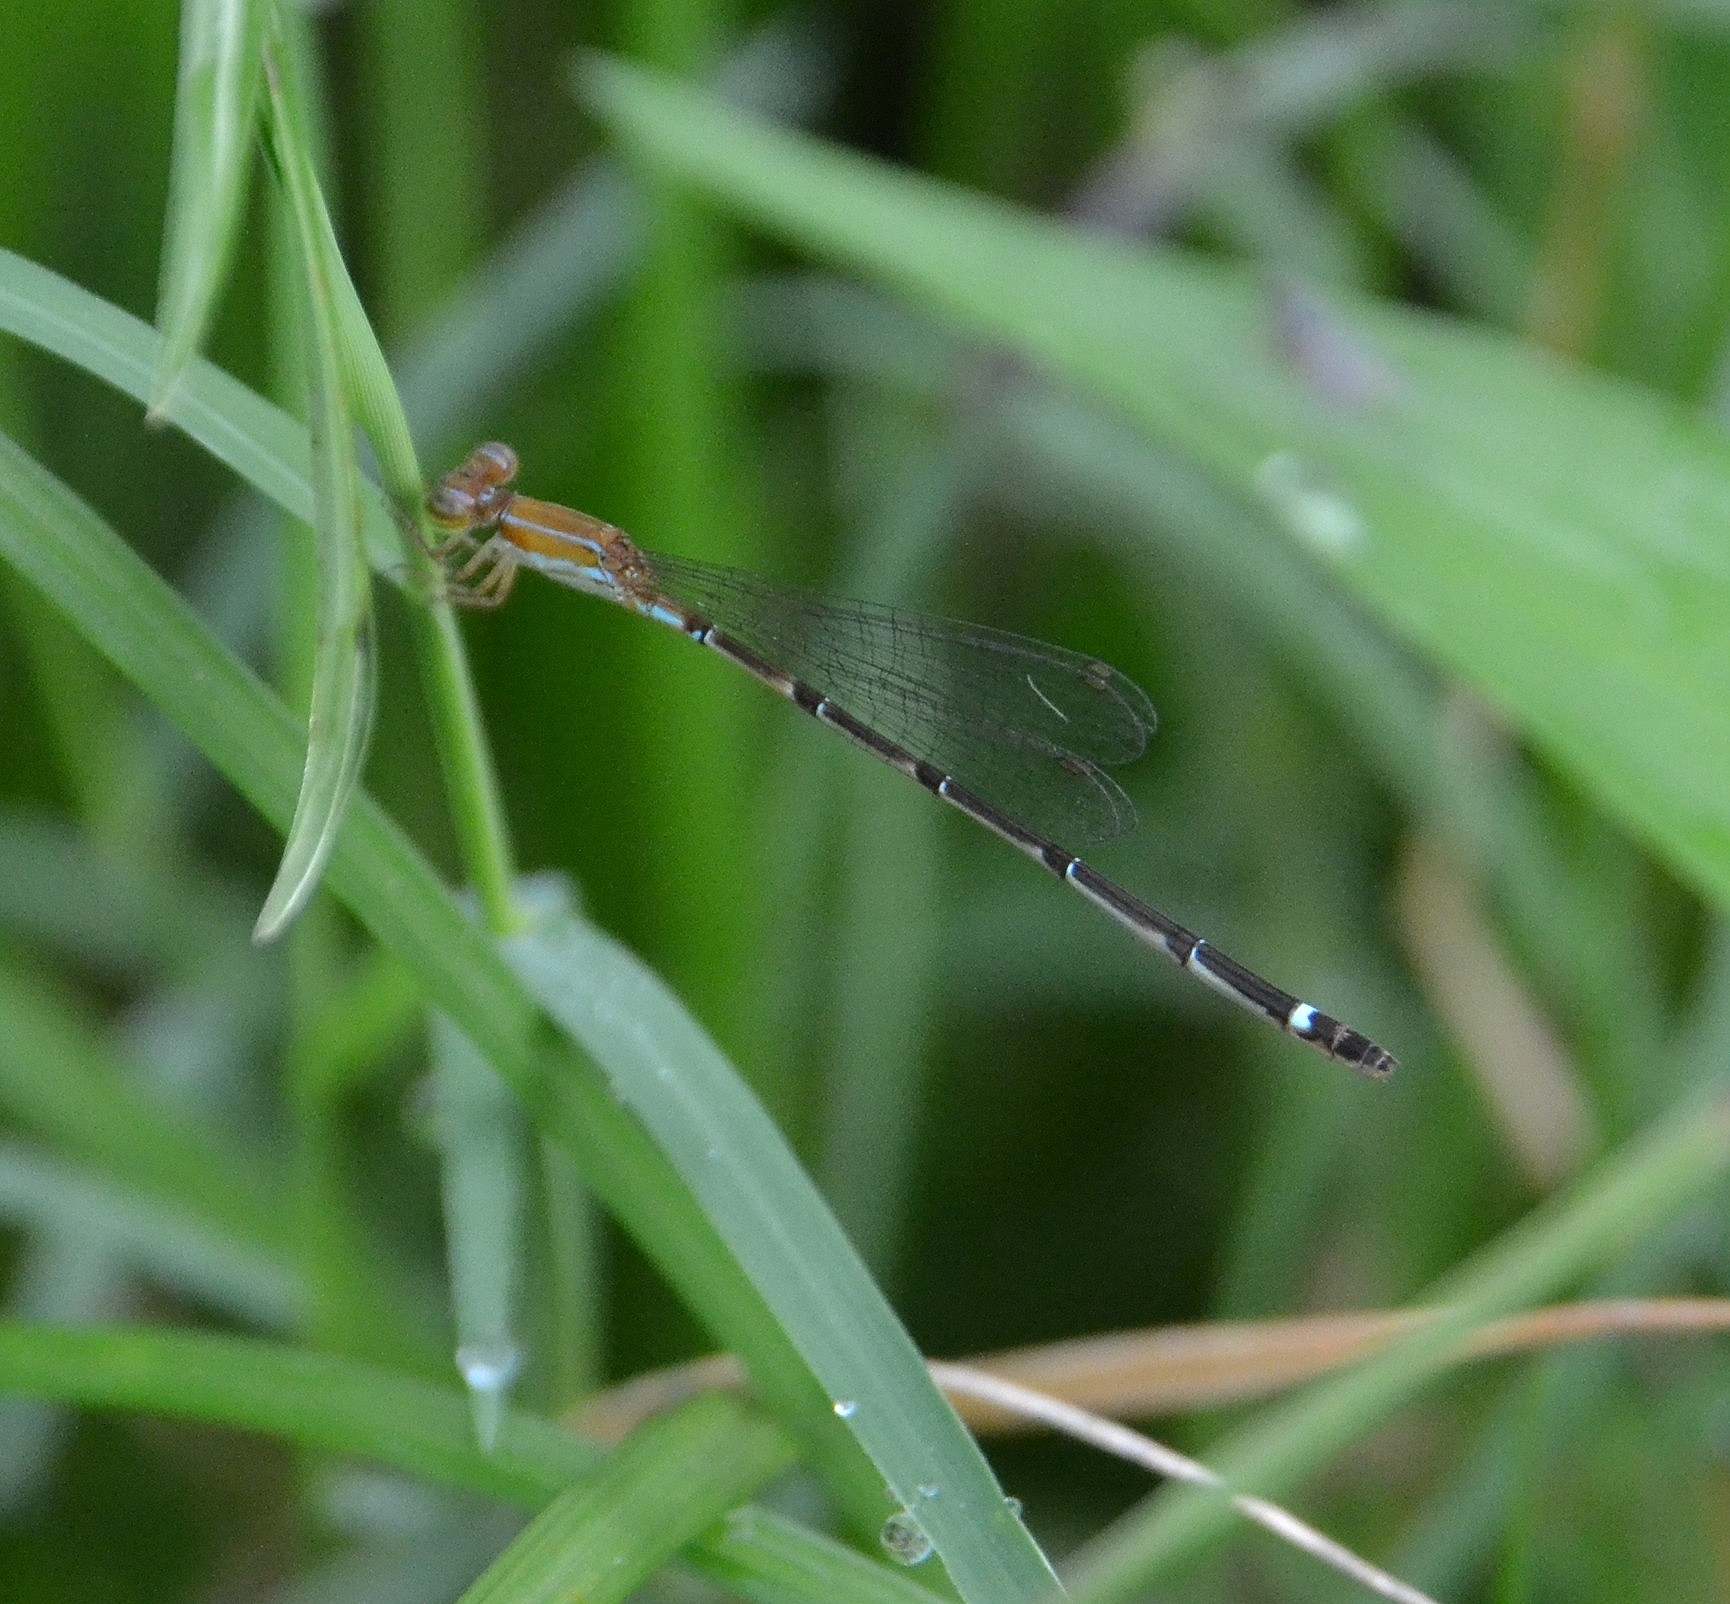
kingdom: Animalia
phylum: Arthropoda
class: Insecta
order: Odonata
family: Coenagrionidae
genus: Mortonagrion
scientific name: Mortonagrion varralli
